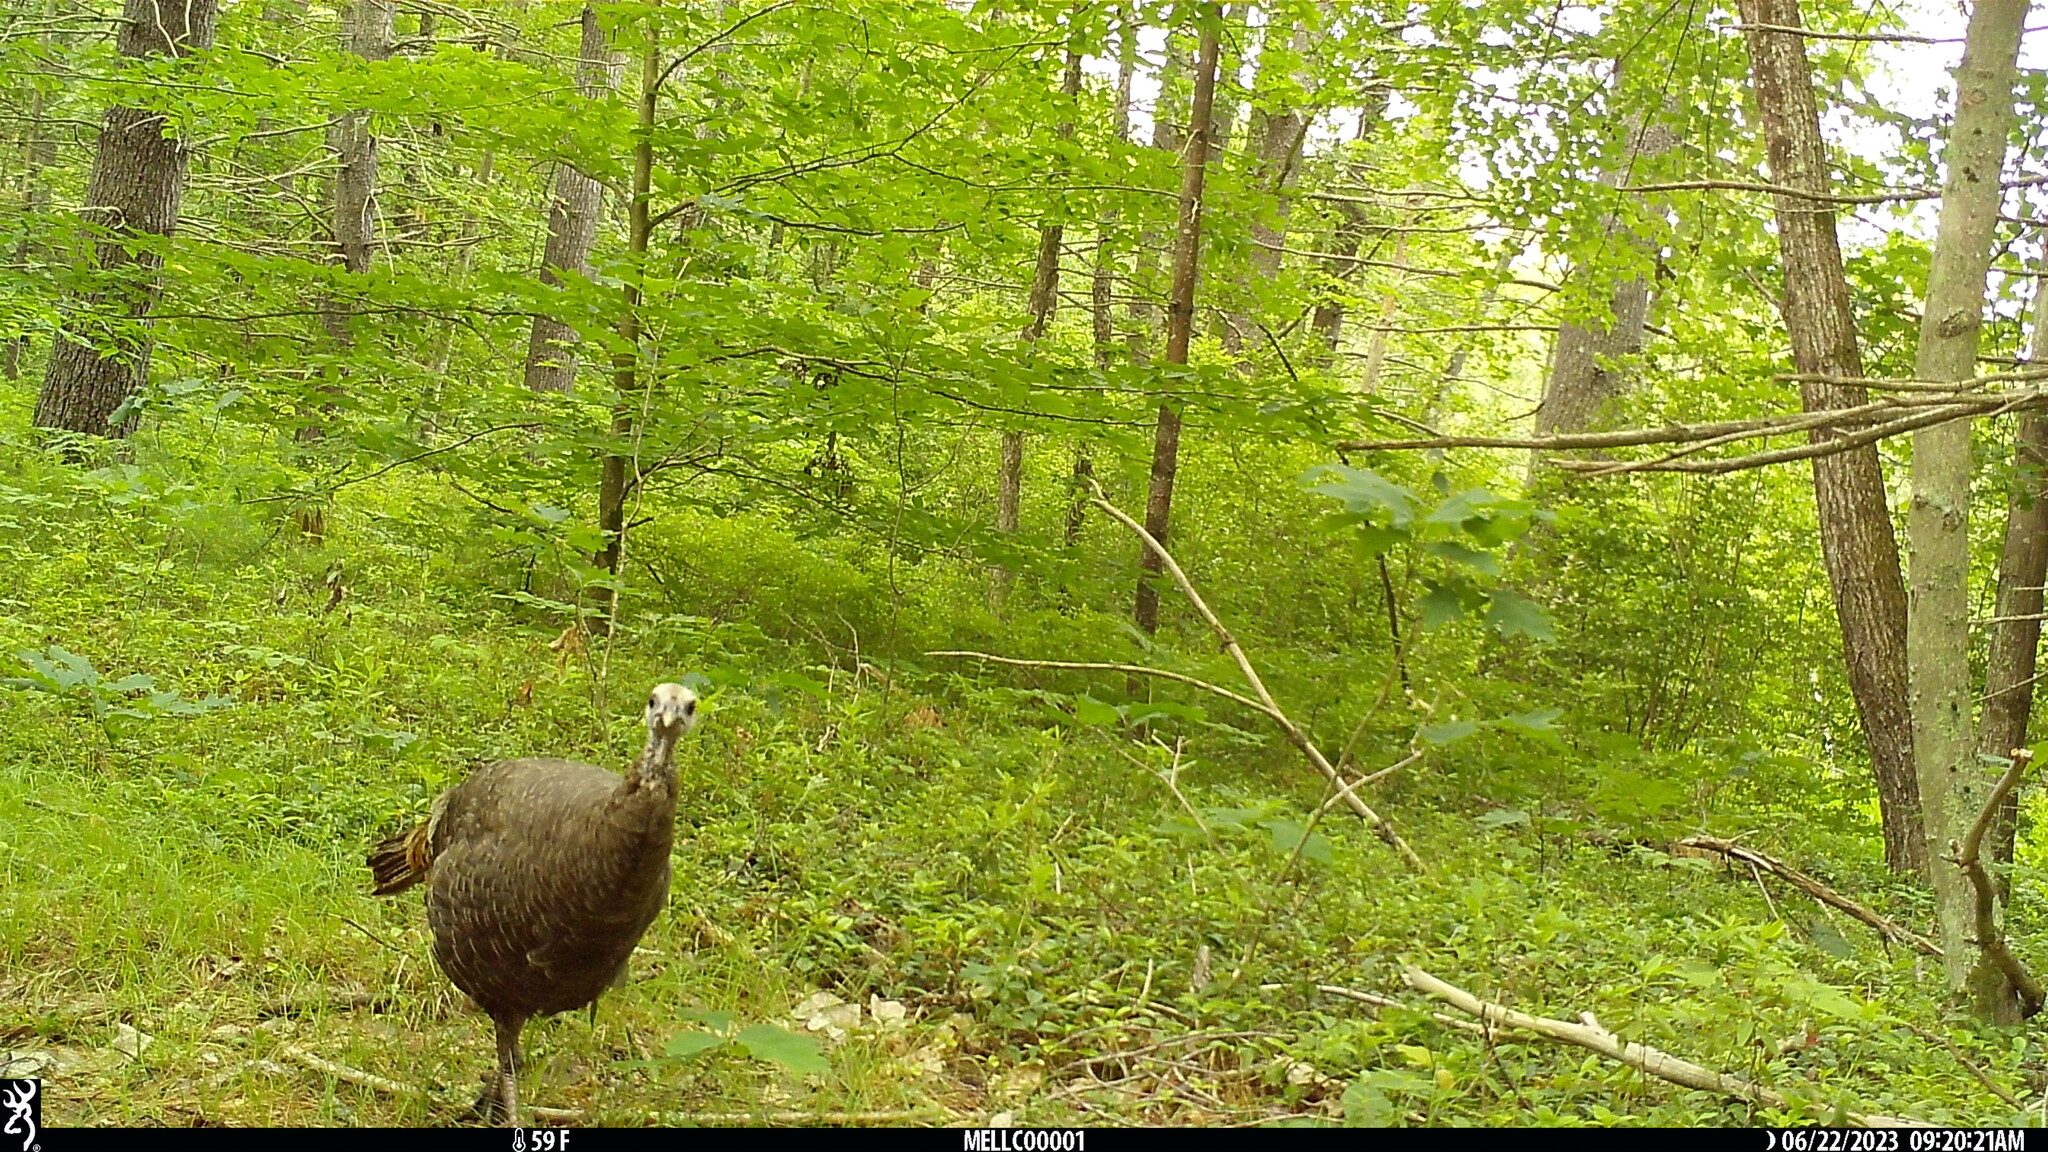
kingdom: Animalia
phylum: Chordata
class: Aves
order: Galliformes
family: Phasianidae
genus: Meleagris
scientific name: Meleagris gallopavo
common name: Wild turkey
